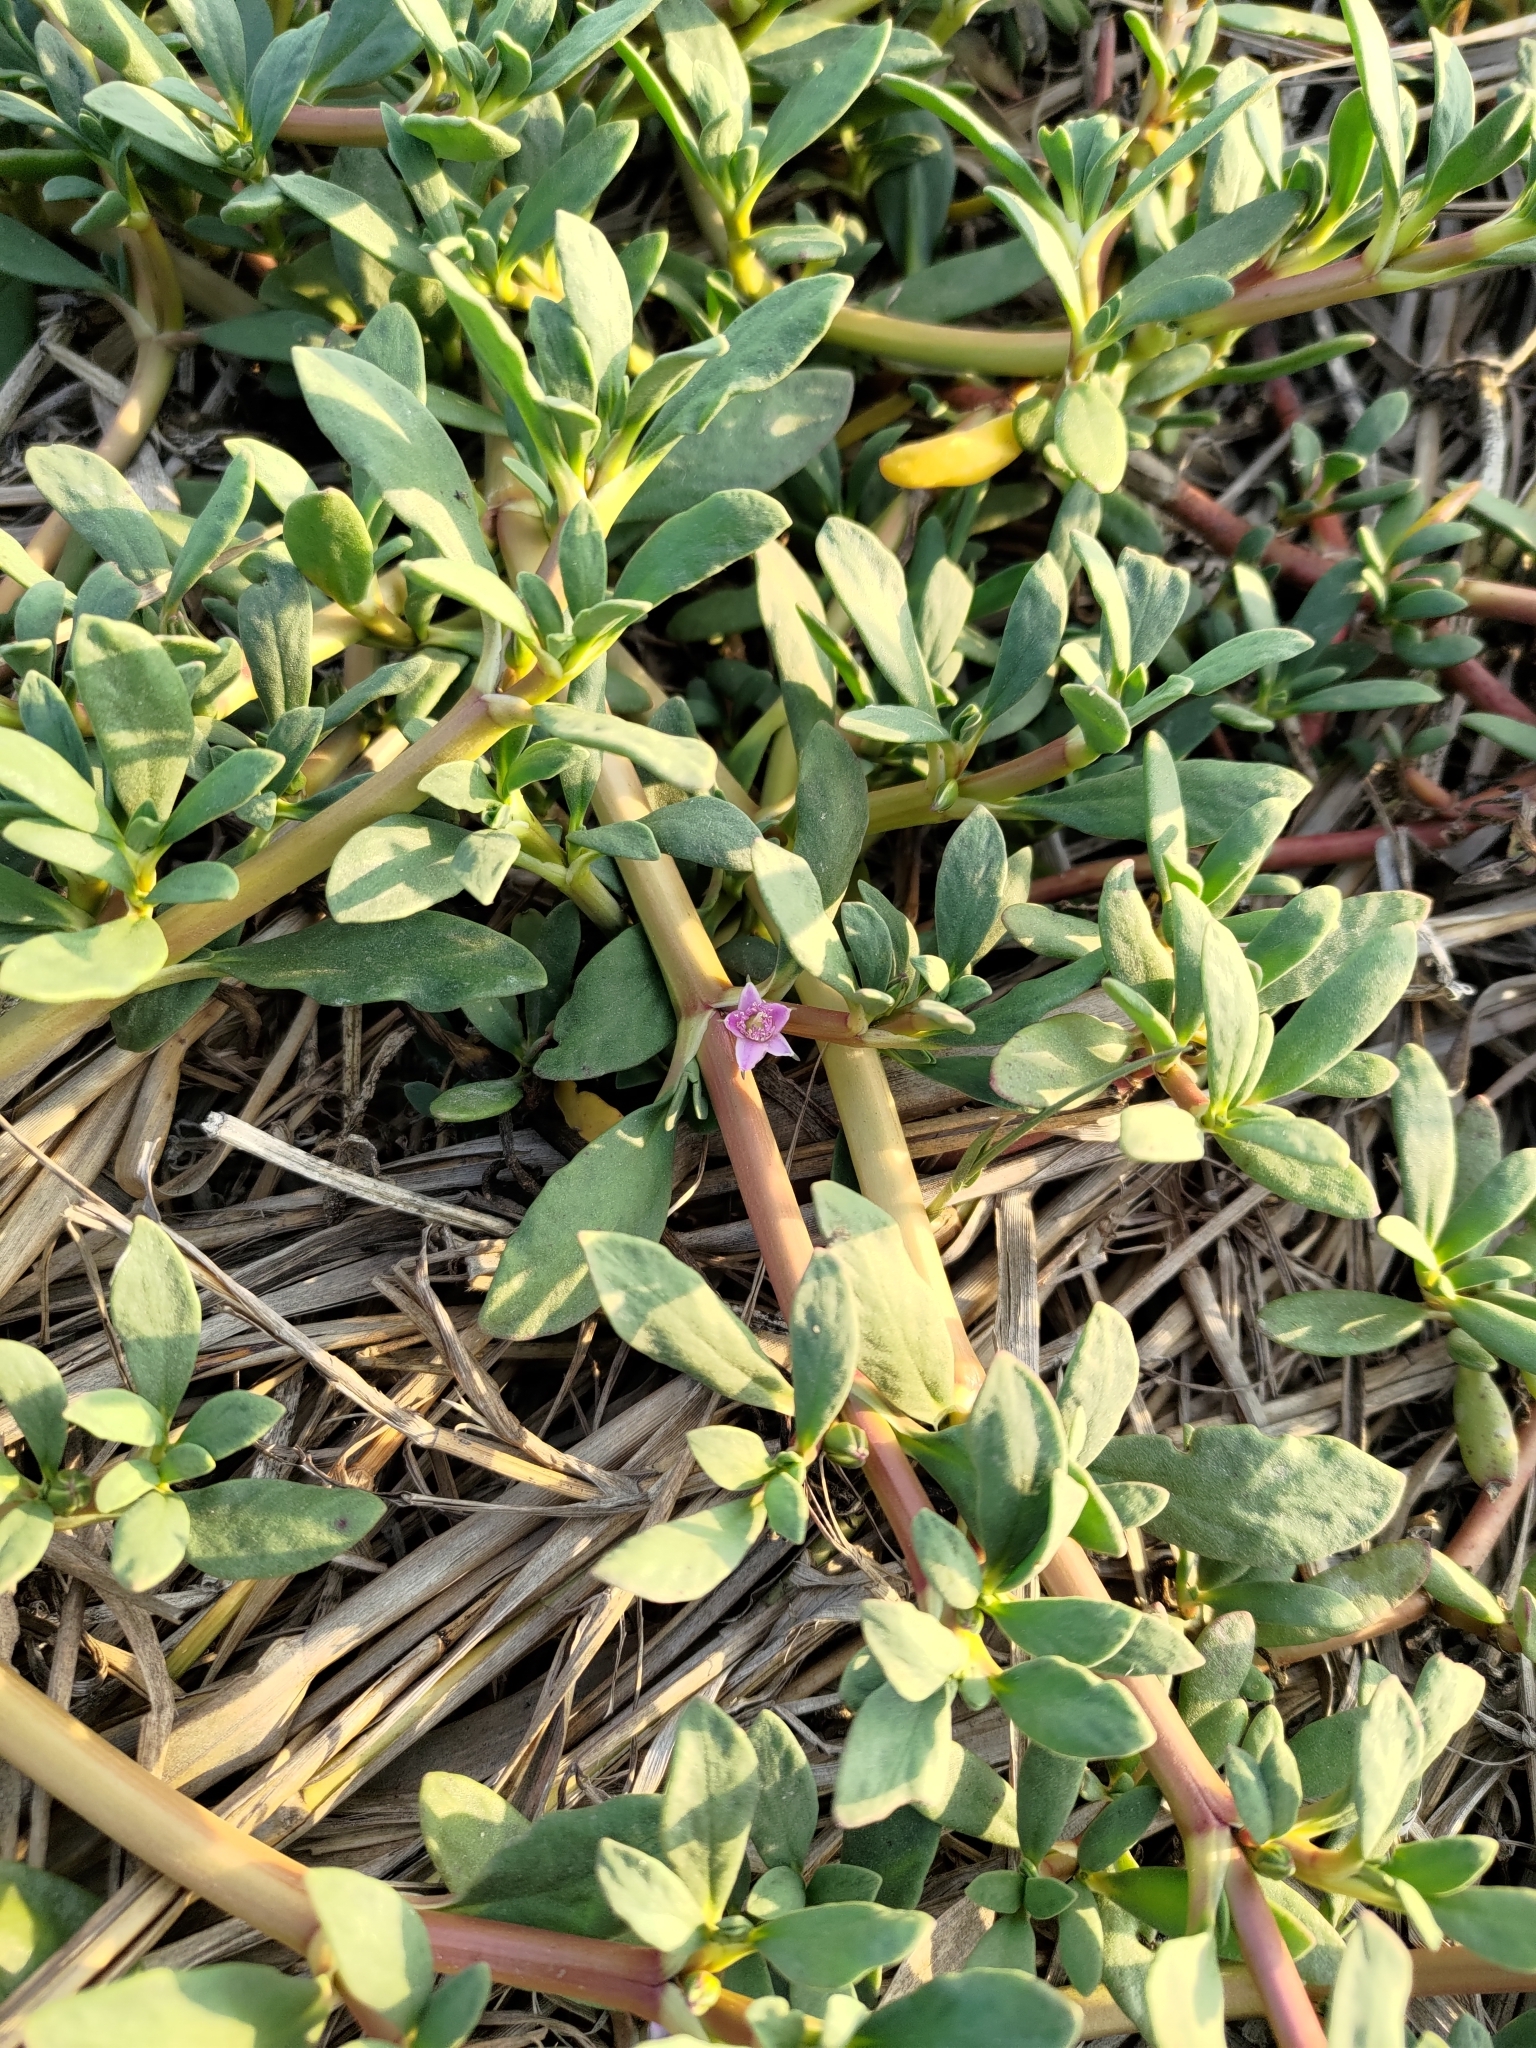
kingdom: Plantae
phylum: Tracheophyta
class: Magnoliopsida
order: Caryophyllales
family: Aizoaceae
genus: Sesuvium
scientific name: Sesuvium portulacastrum
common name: Sea-purslane
